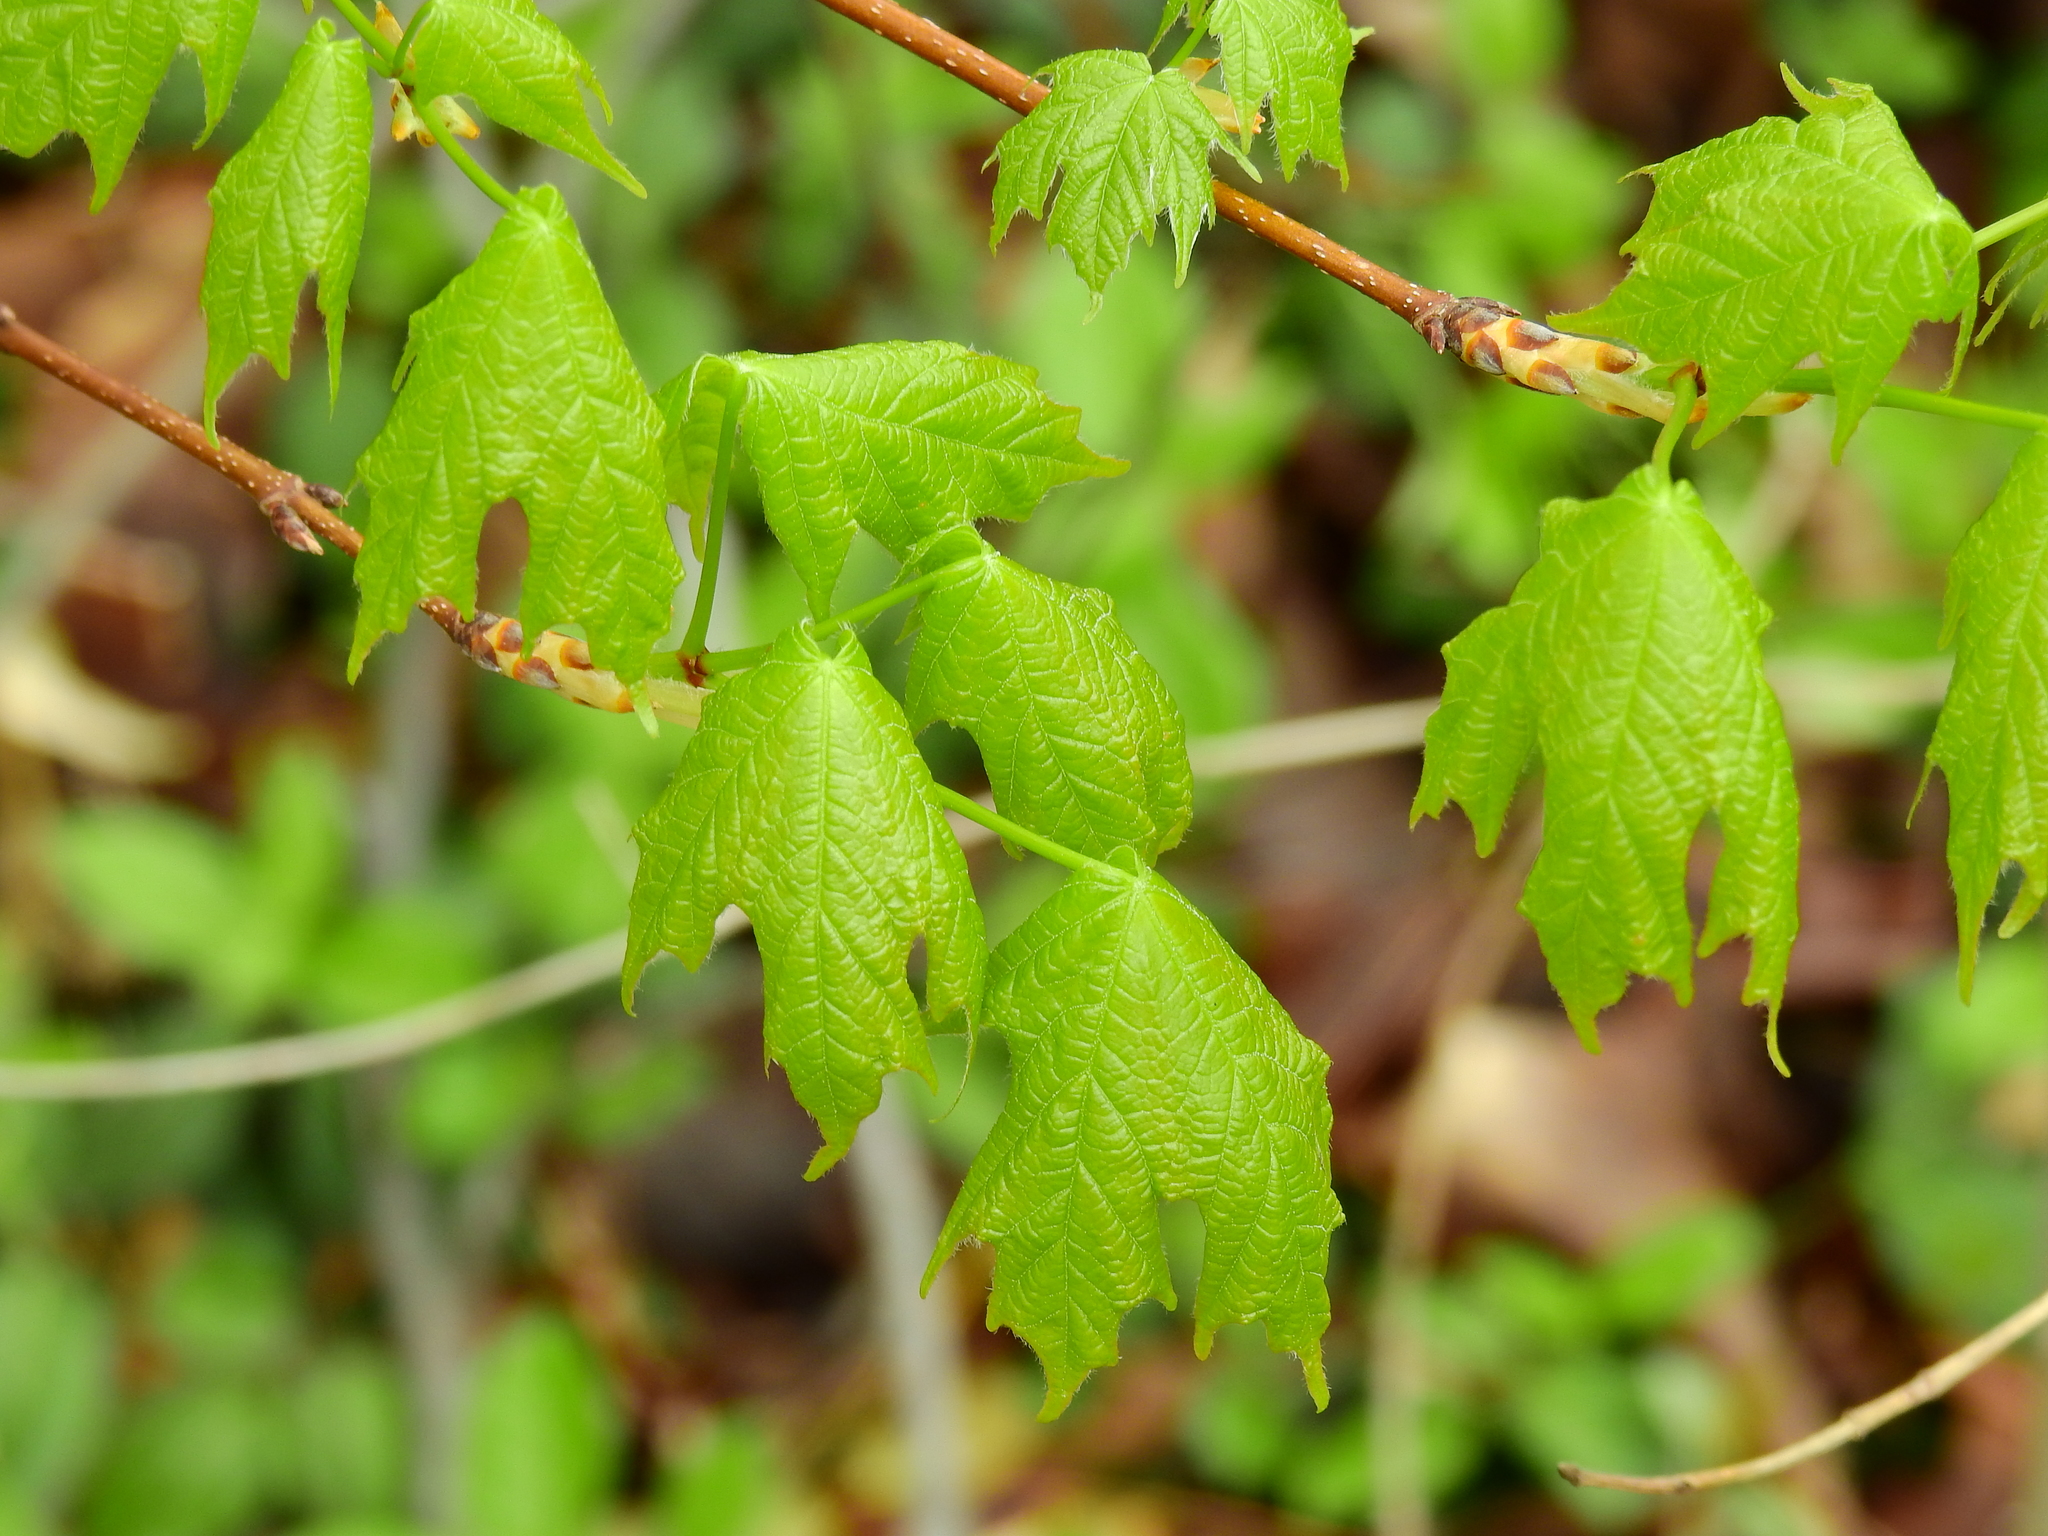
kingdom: Plantae
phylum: Tracheophyta
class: Magnoliopsida
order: Sapindales
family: Sapindaceae
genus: Acer
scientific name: Acer saccharum
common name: Sugar maple
